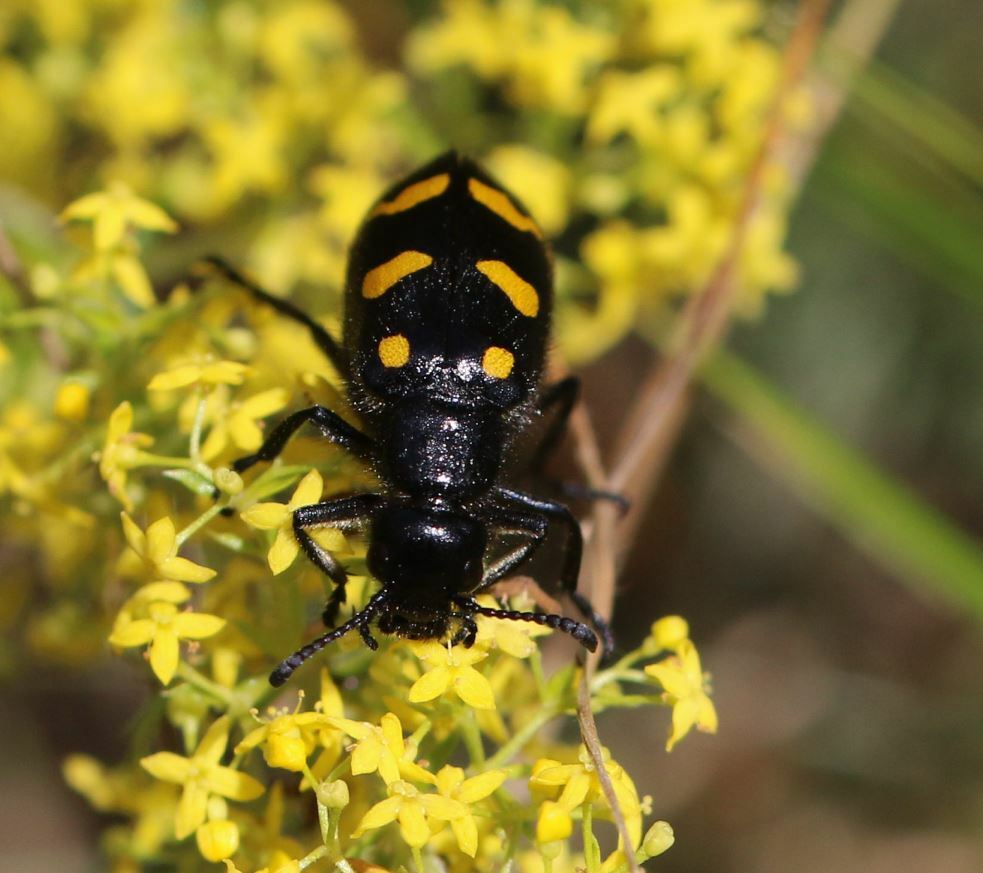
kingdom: Animalia
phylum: Arthropoda
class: Insecta
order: Coleoptera
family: Meloidae
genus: Hycleus
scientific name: Hycleus polymorphus
